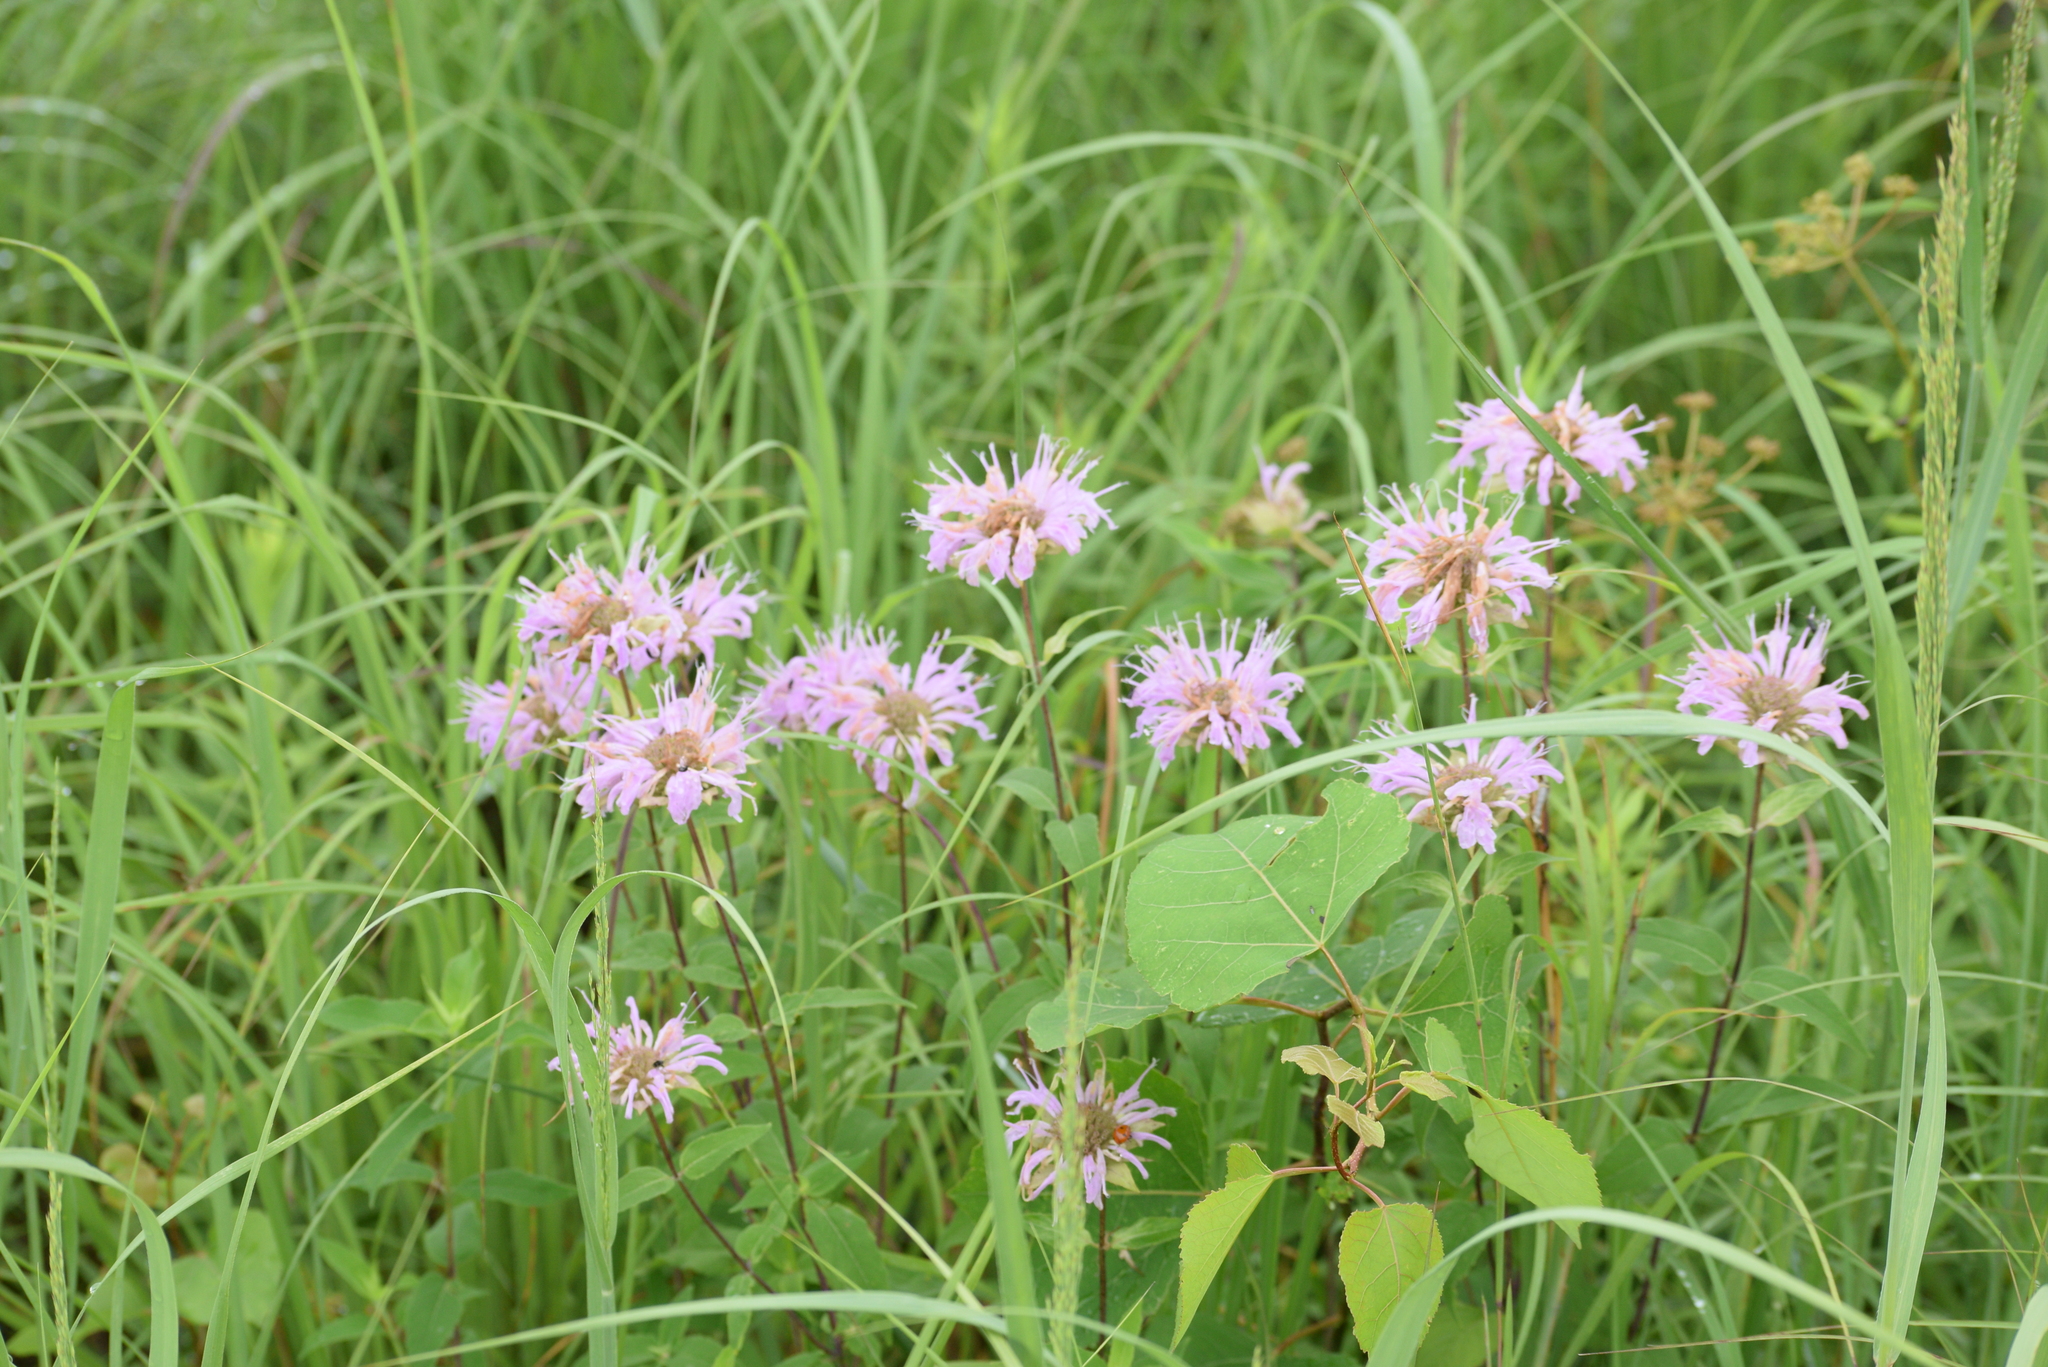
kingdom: Plantae
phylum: Tracheophyta
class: Magnoliopsida
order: Lamiales
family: Lamiaceae
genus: Monarda
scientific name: Monarda fistulosa
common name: Purple beebalm
